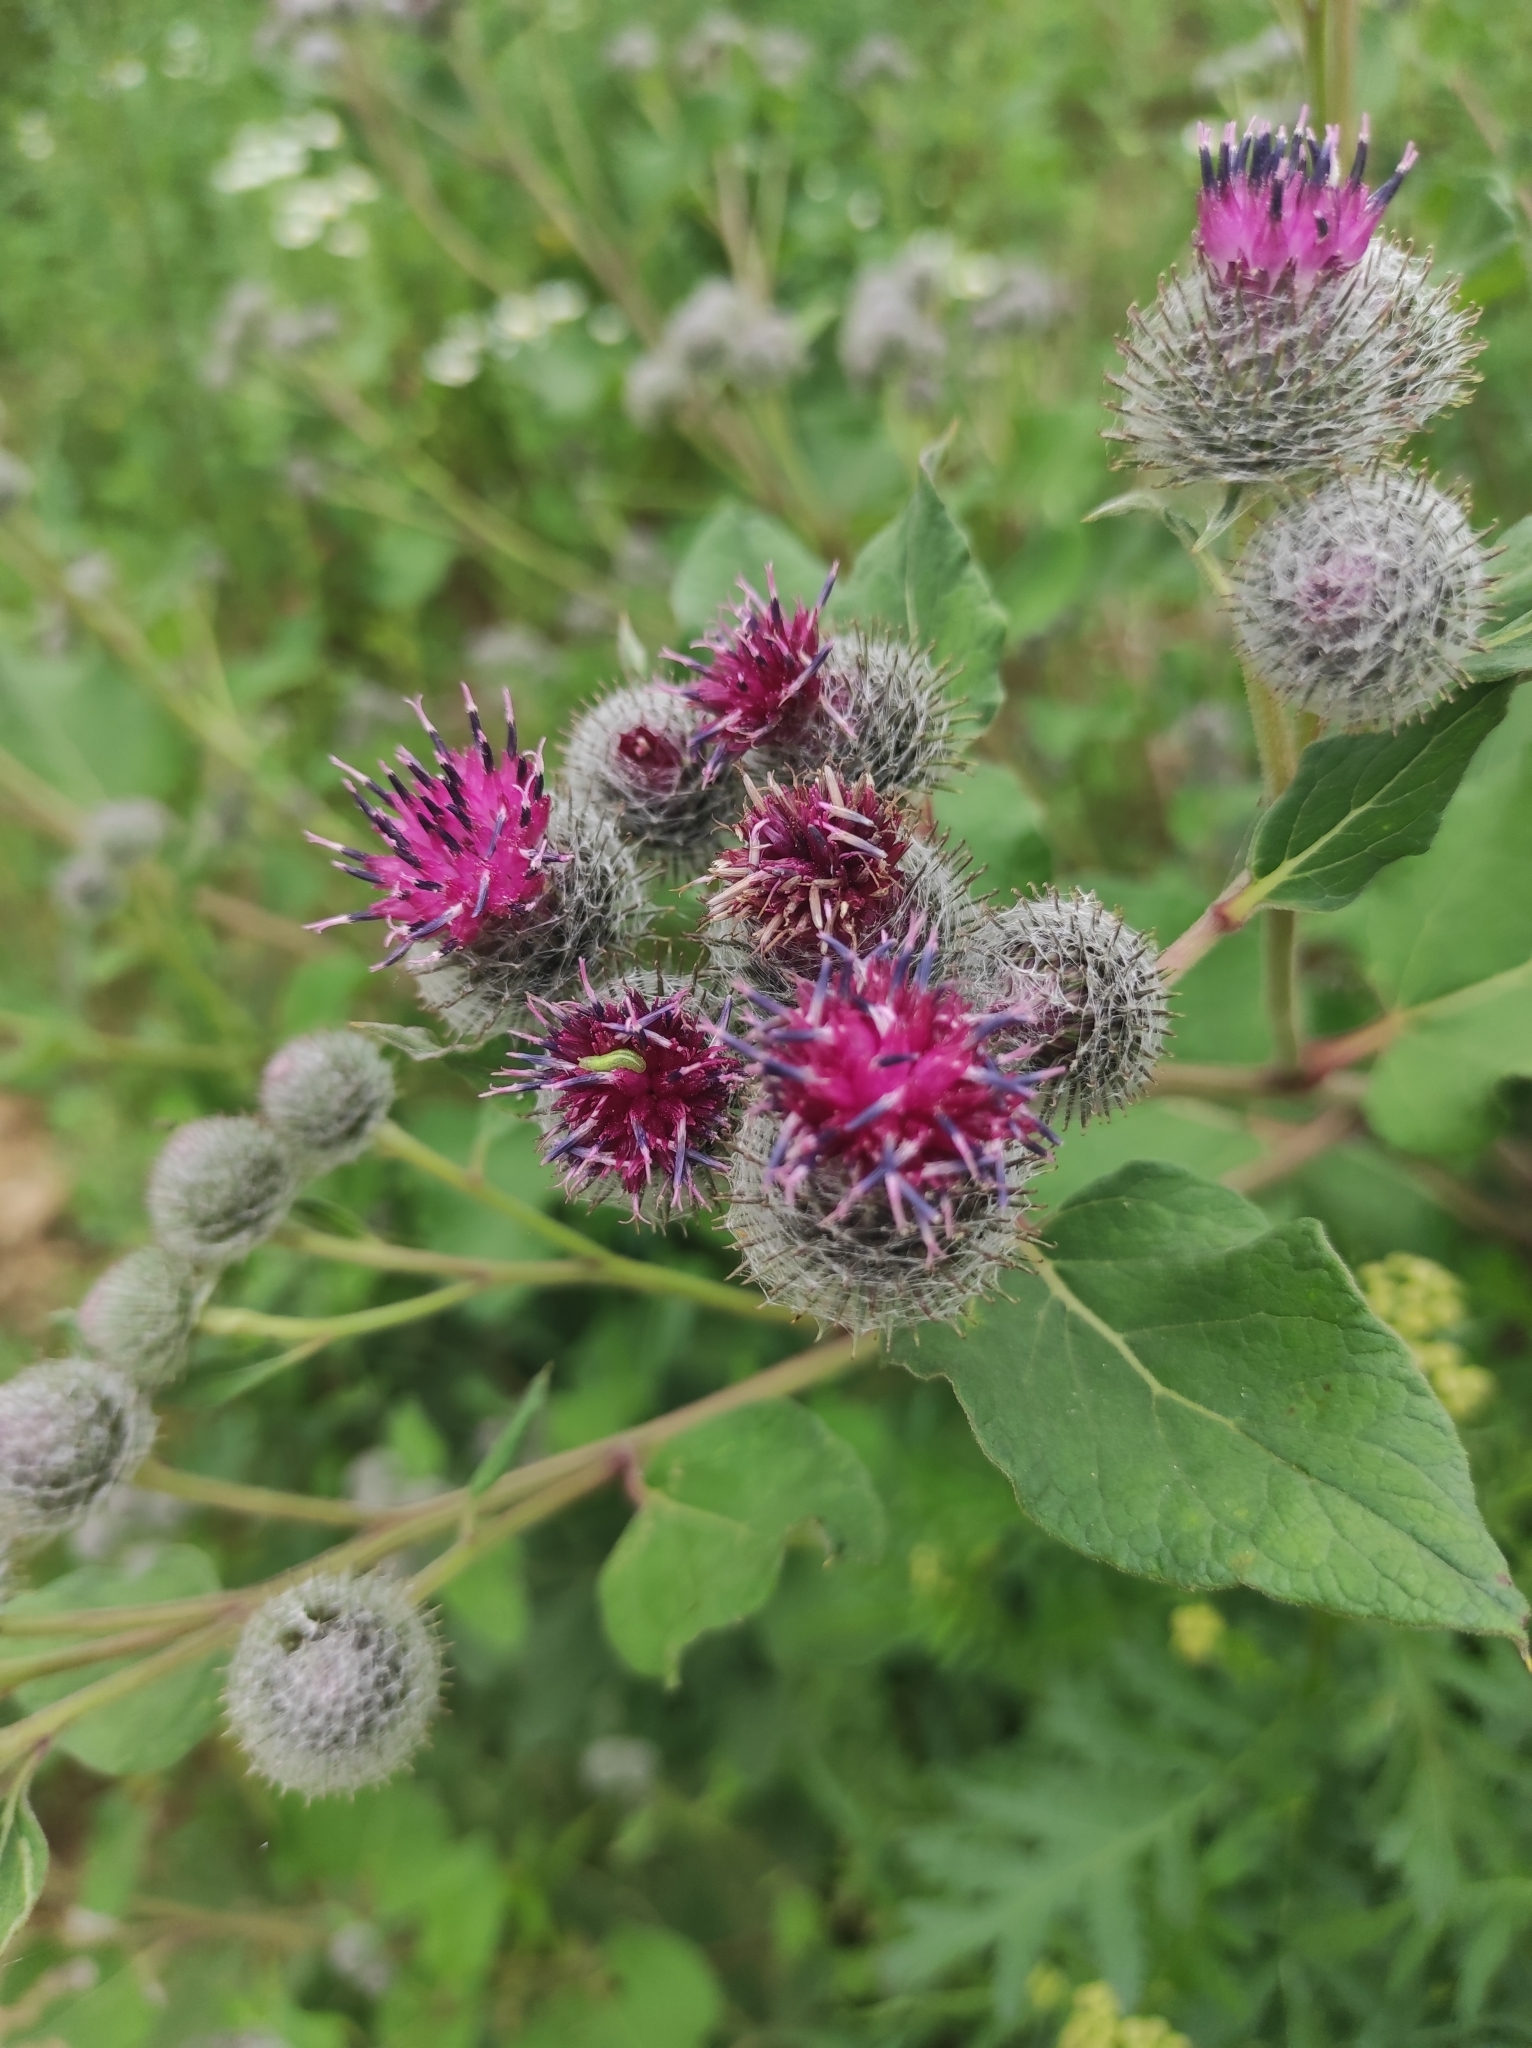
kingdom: Plantae
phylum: Tracheophyta
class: Magnoliopsida
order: Asterales
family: Asteraceae
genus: Arctium
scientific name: Arctium tomentosum
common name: Woolly burdock
